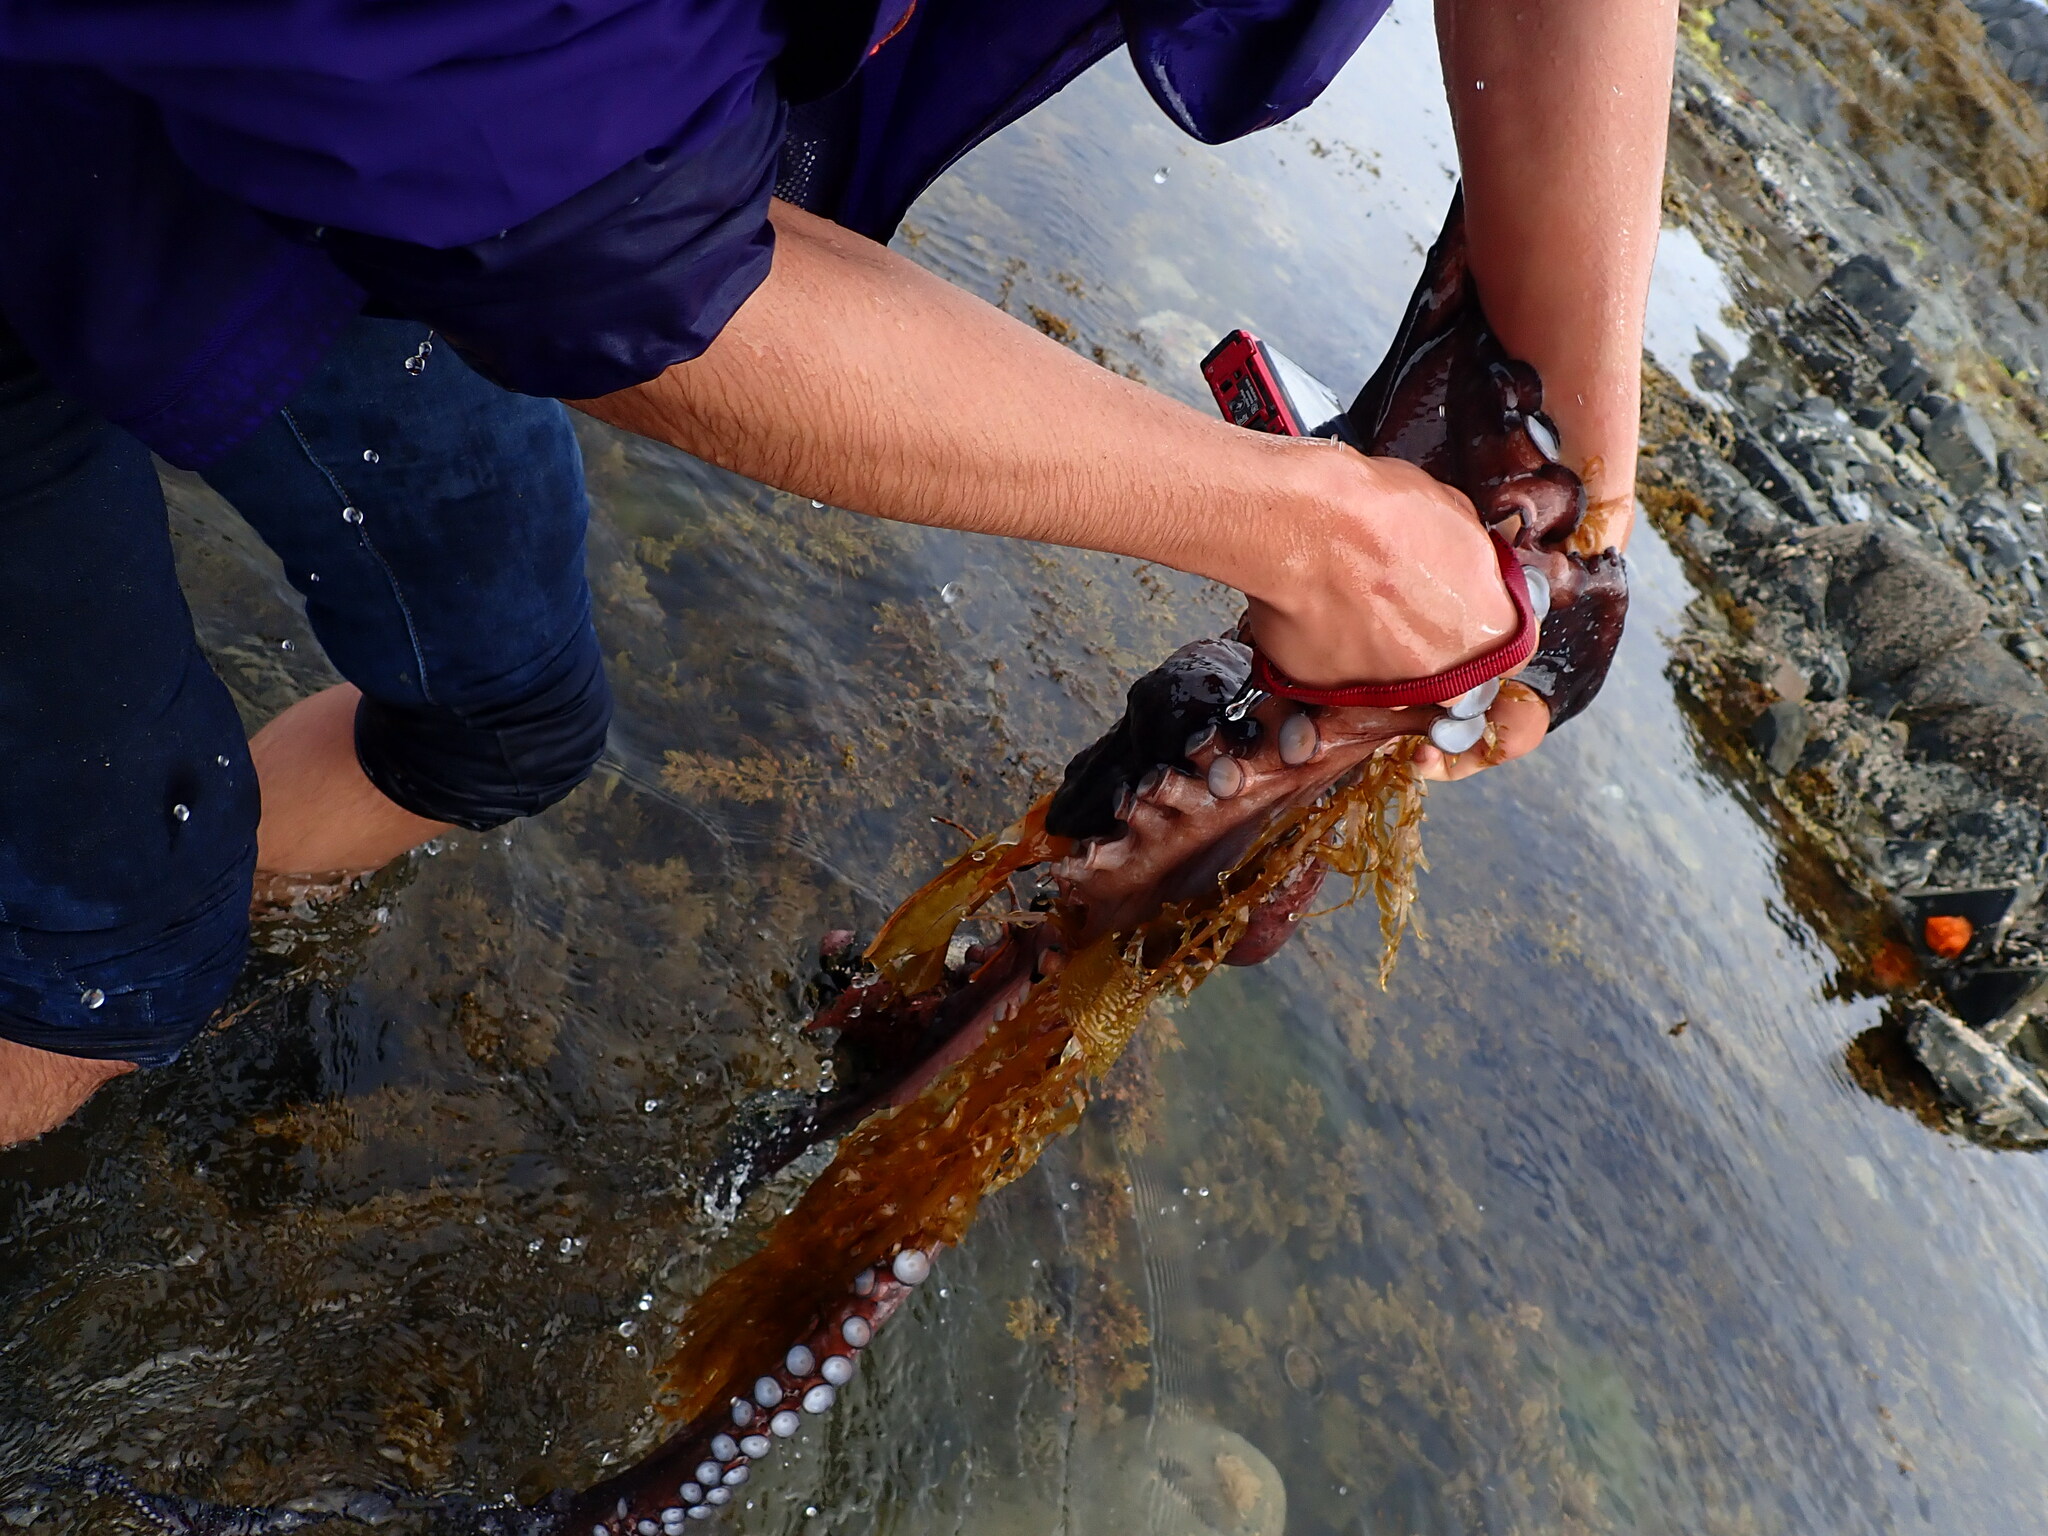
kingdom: Animalia
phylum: Mollusca
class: Cephalopoda
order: Octopoda
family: Octopodidae
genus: Macroctopus
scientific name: Macroctopus maorum
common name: Maori octopus
